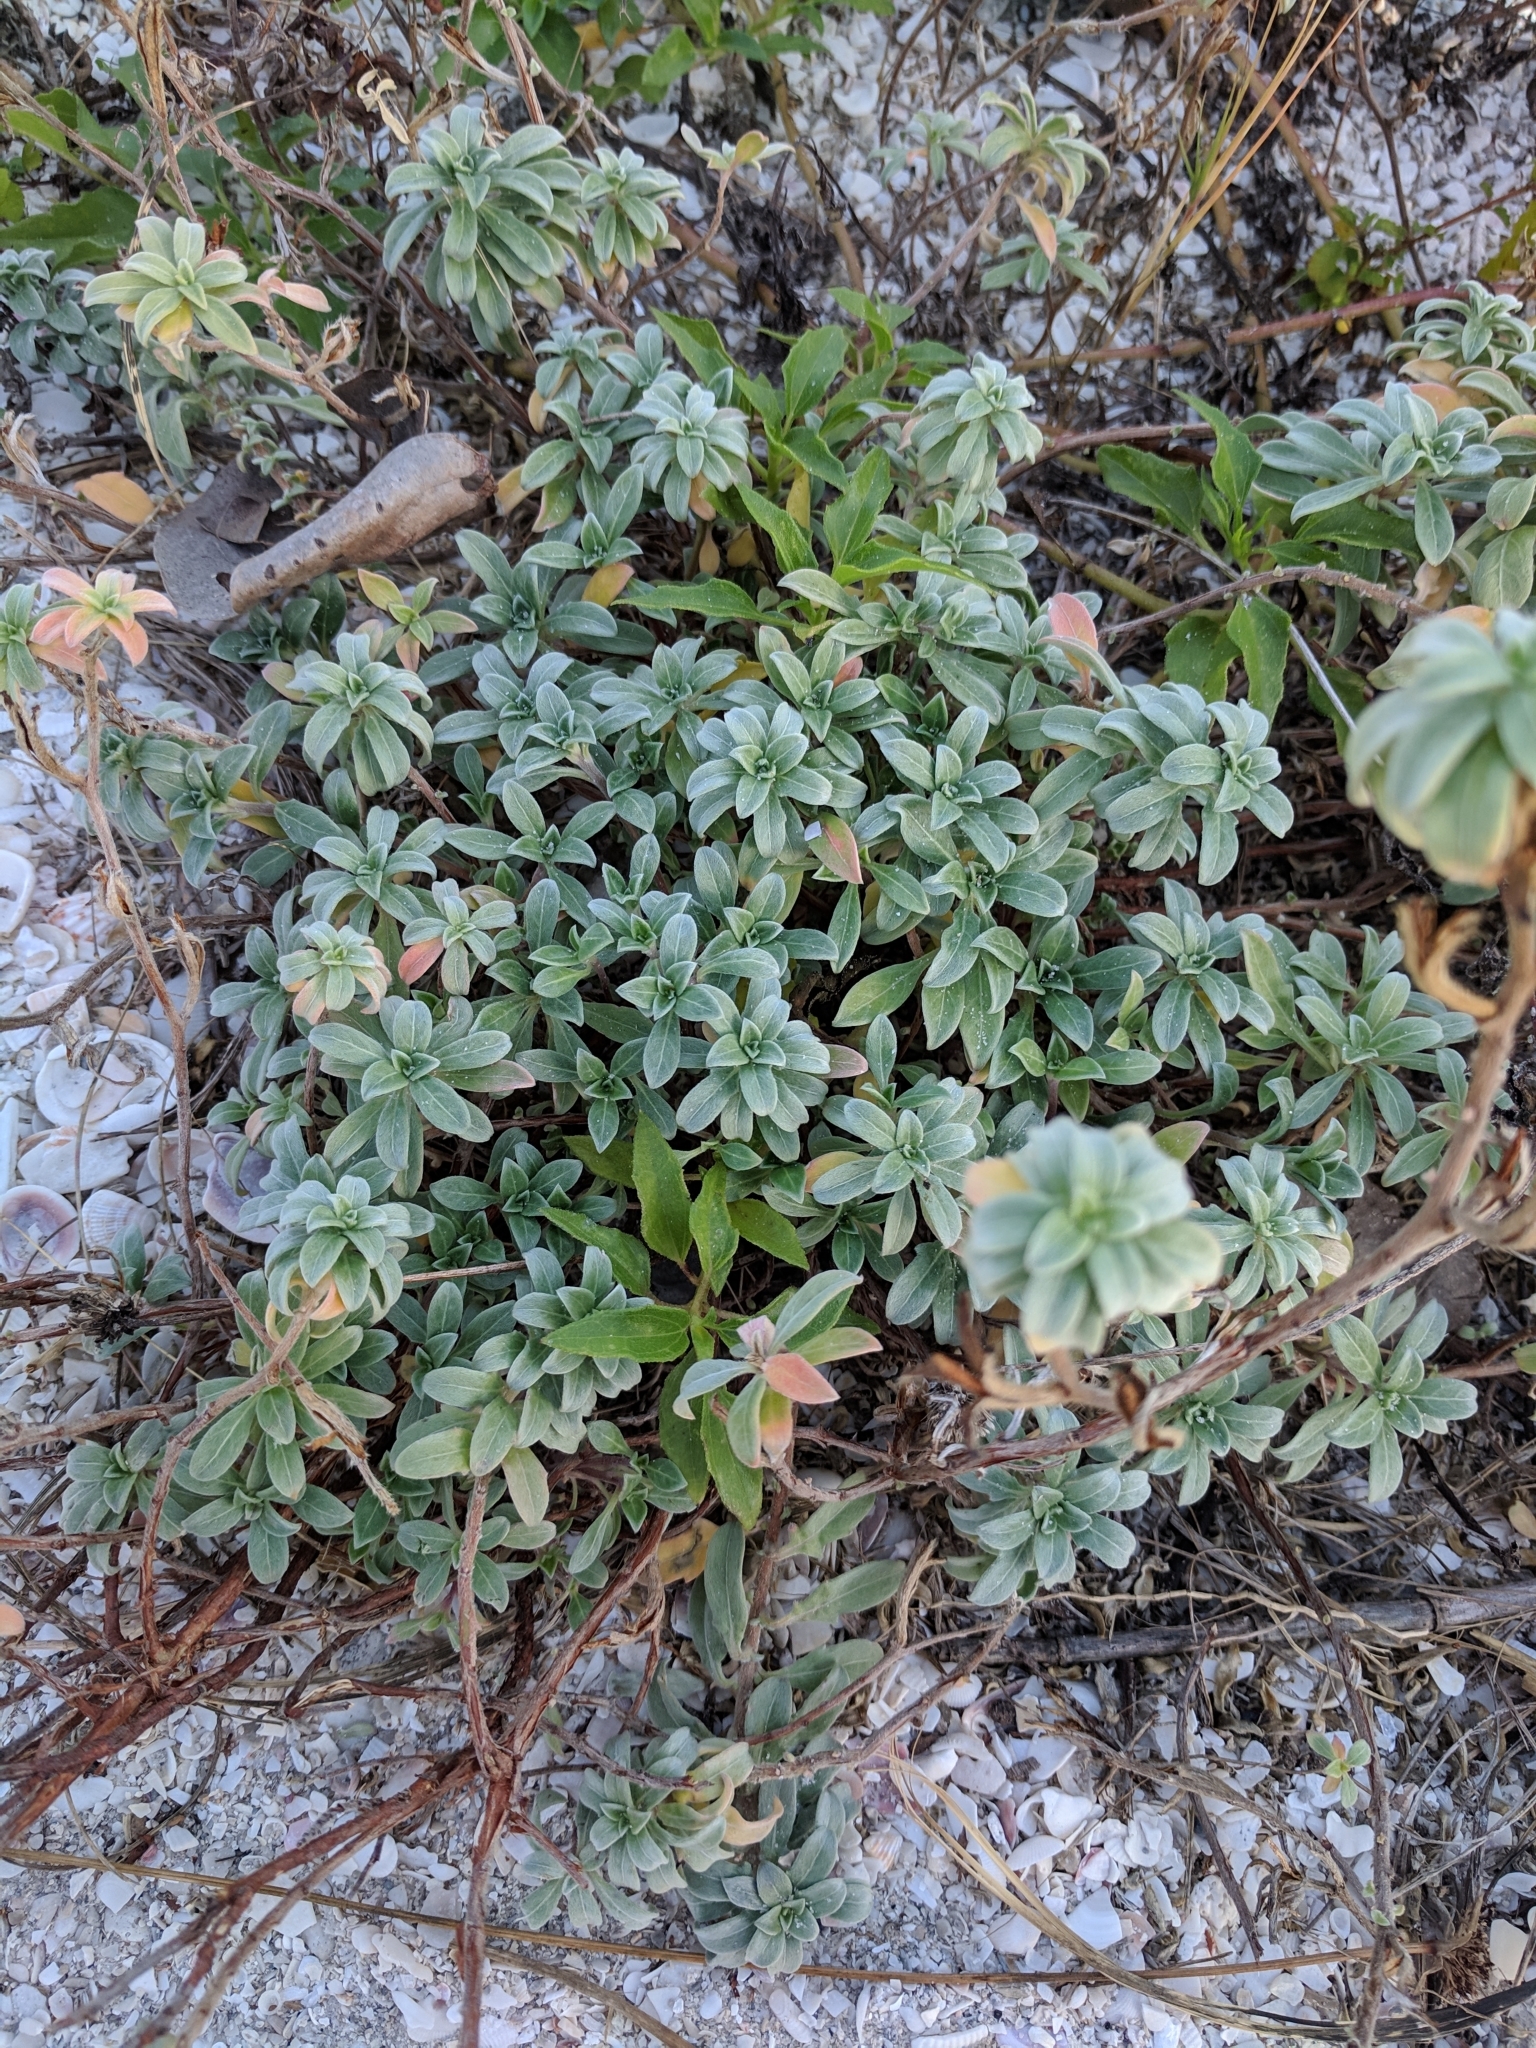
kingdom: Plantae
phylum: Tracheophyta
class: Magnoliopsida
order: Myrtales
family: Onagraceae
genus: Oenothera
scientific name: Oenothera humifusa
